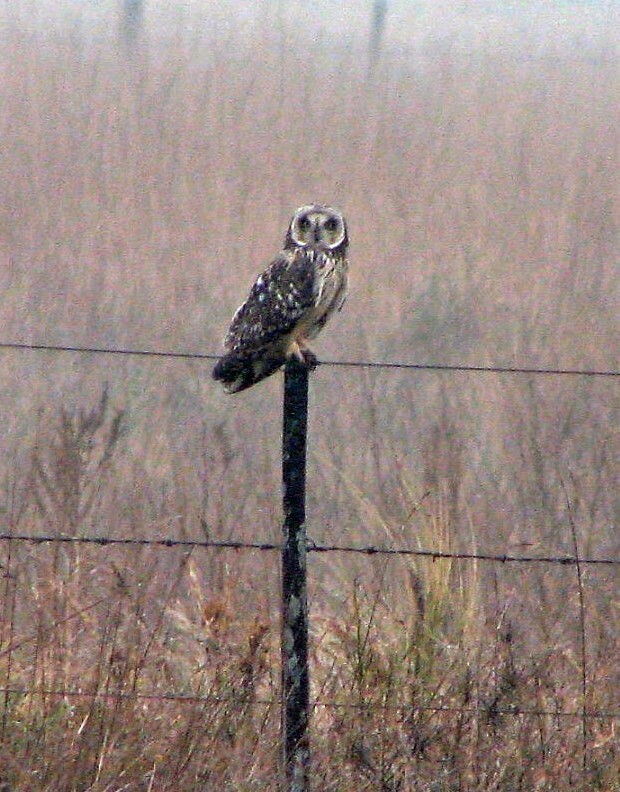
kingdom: Animalia
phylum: Chordata
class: Aves
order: Strigiformes
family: Strigidae
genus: Asio
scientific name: Asio flammeus
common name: Short-eared owl
